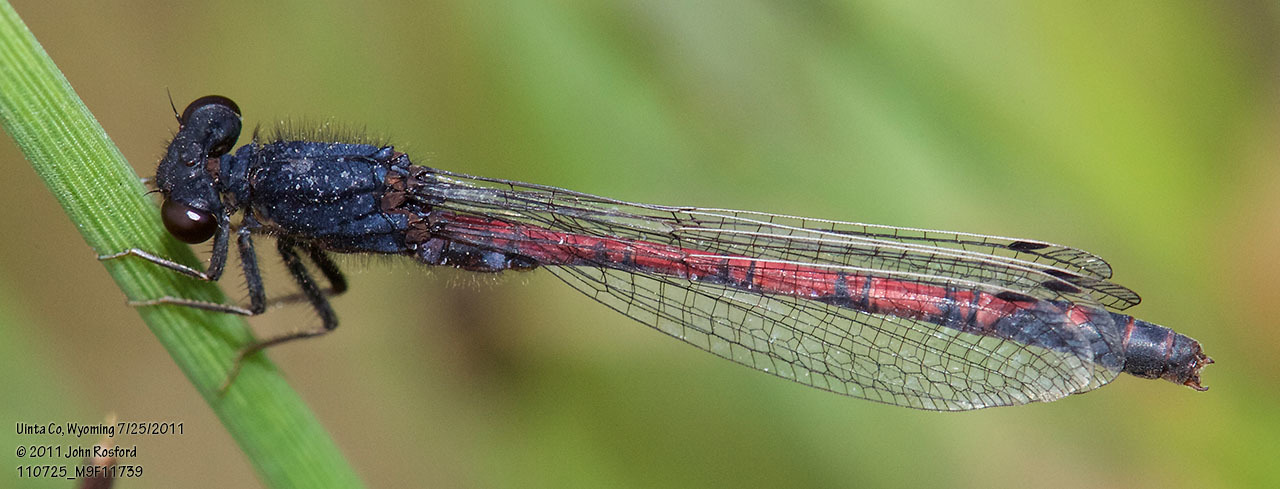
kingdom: Animalia
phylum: Arthropoda
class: Insecta
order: Odonata
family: Coenagrionidae
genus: Amphiagrion
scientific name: Amphiagrion abbreviatum
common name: Western red damsel
